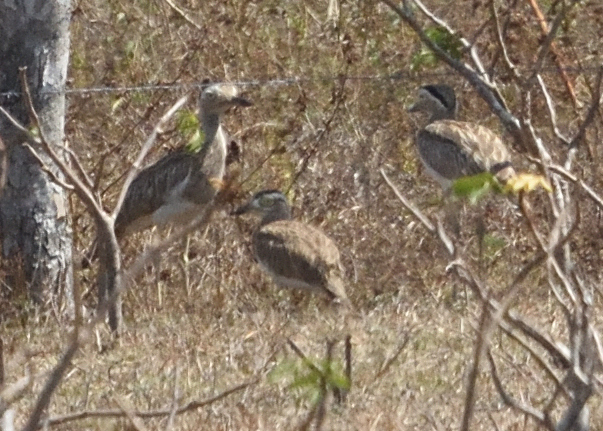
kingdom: Animalia
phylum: Chordata
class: Aves
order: Charadriiformes
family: Burhinidae
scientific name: Burhinidae
